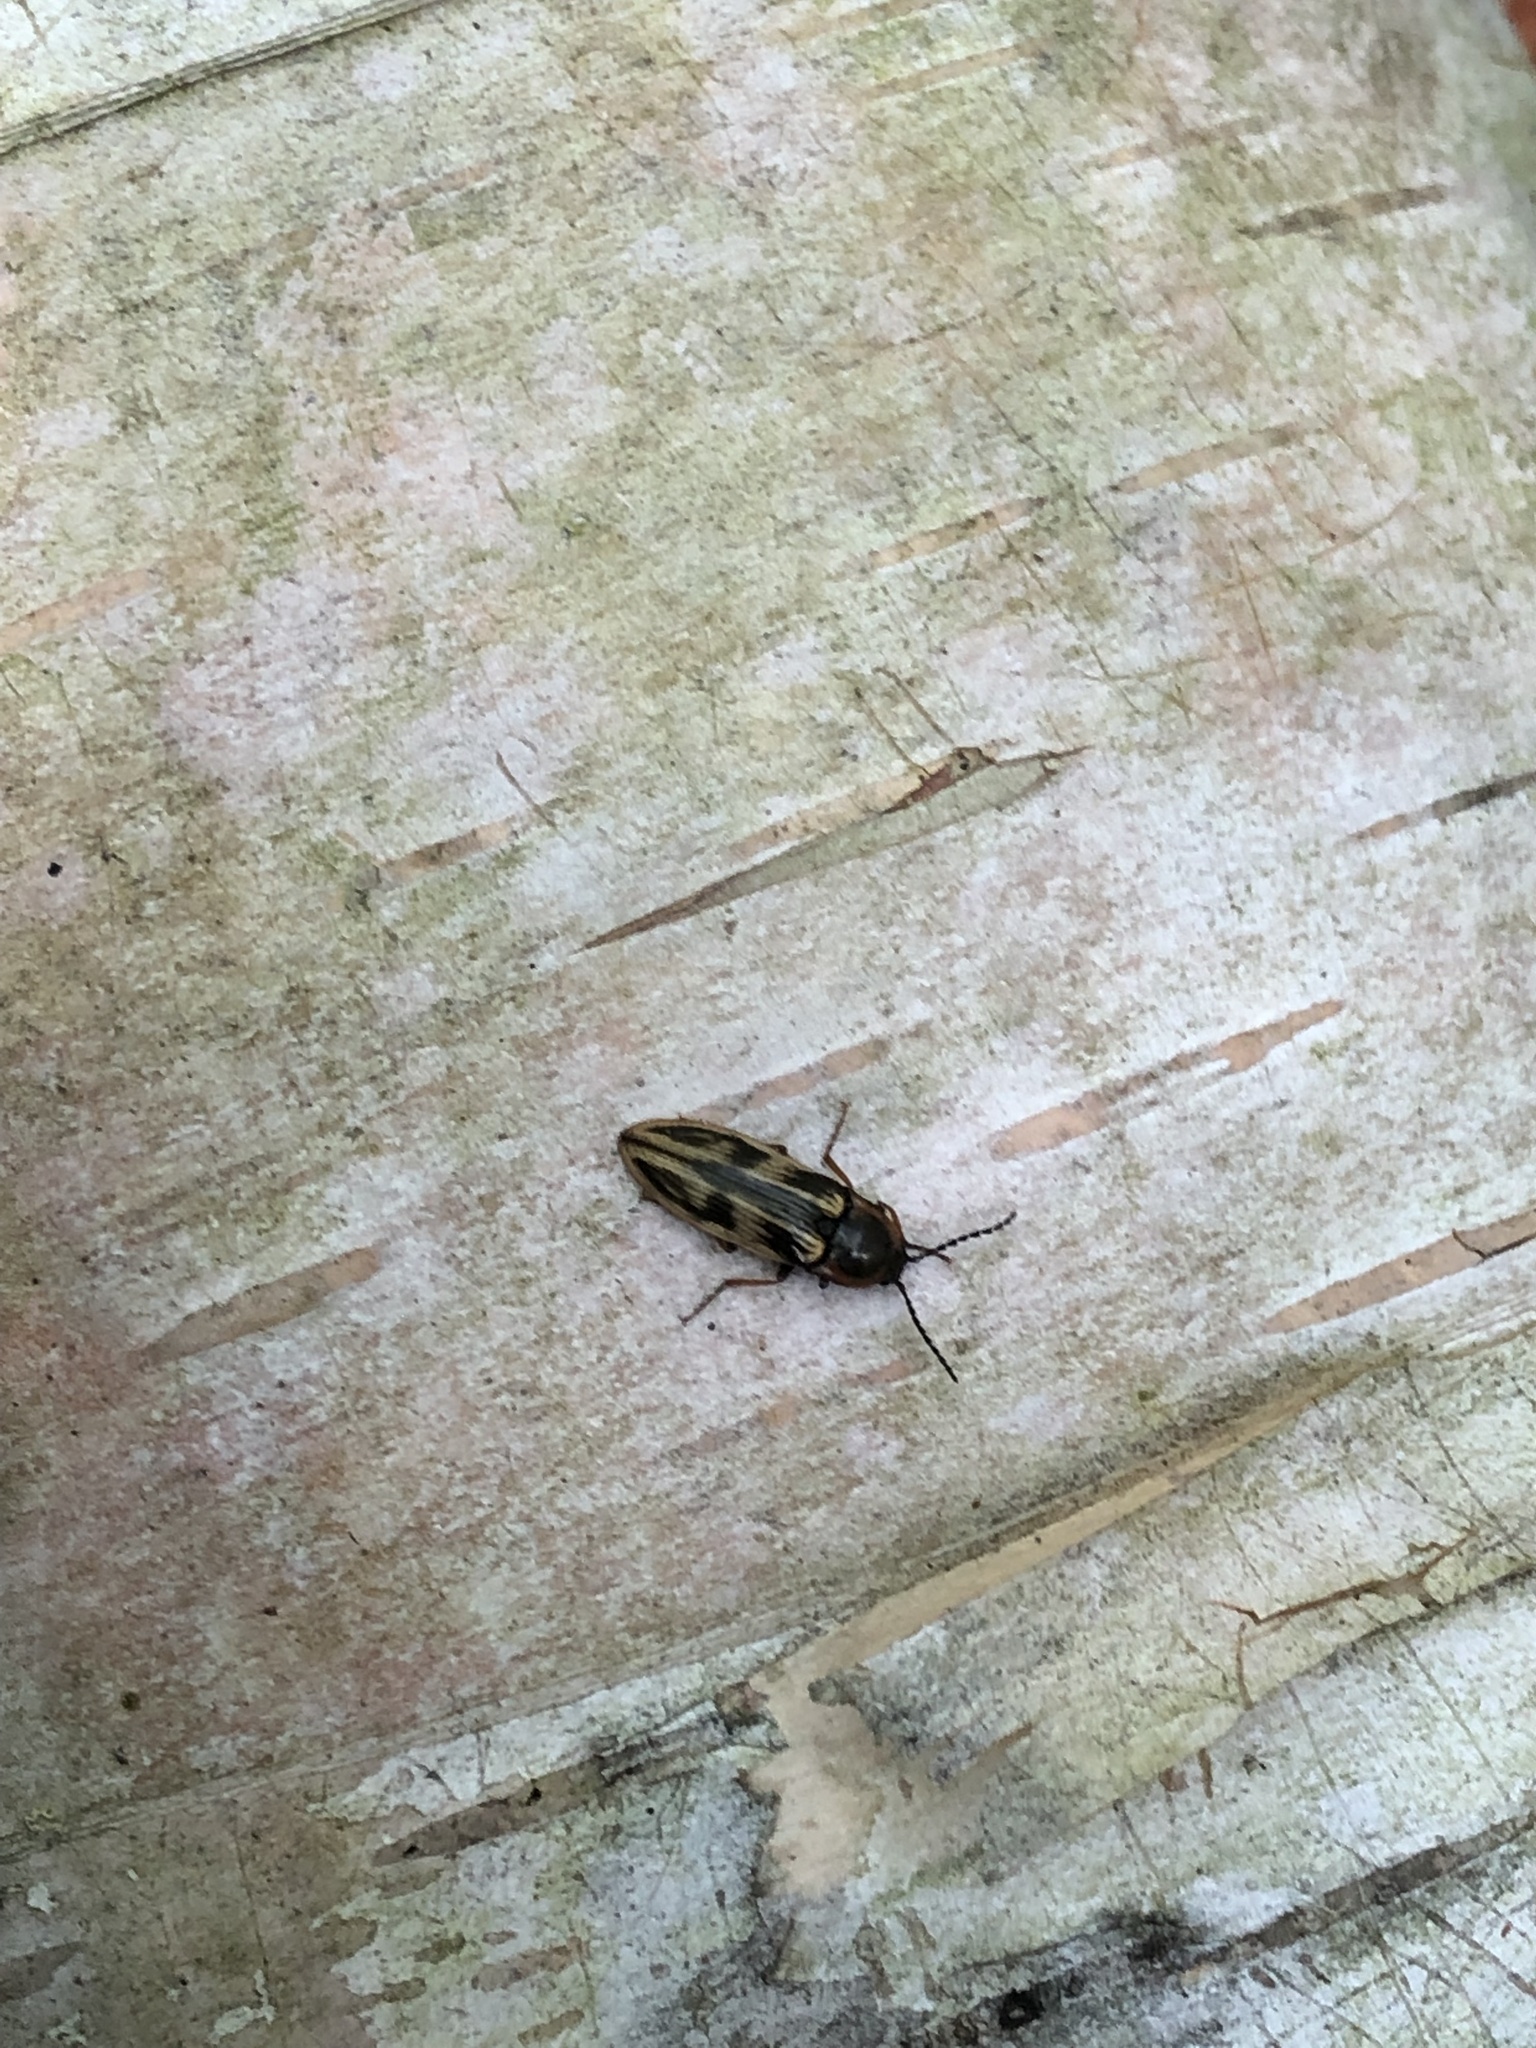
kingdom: Animalia
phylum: Arthropoda
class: Insecta
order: Coleoptera
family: Elateridae
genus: Beckerus
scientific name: Beckerus appressus
